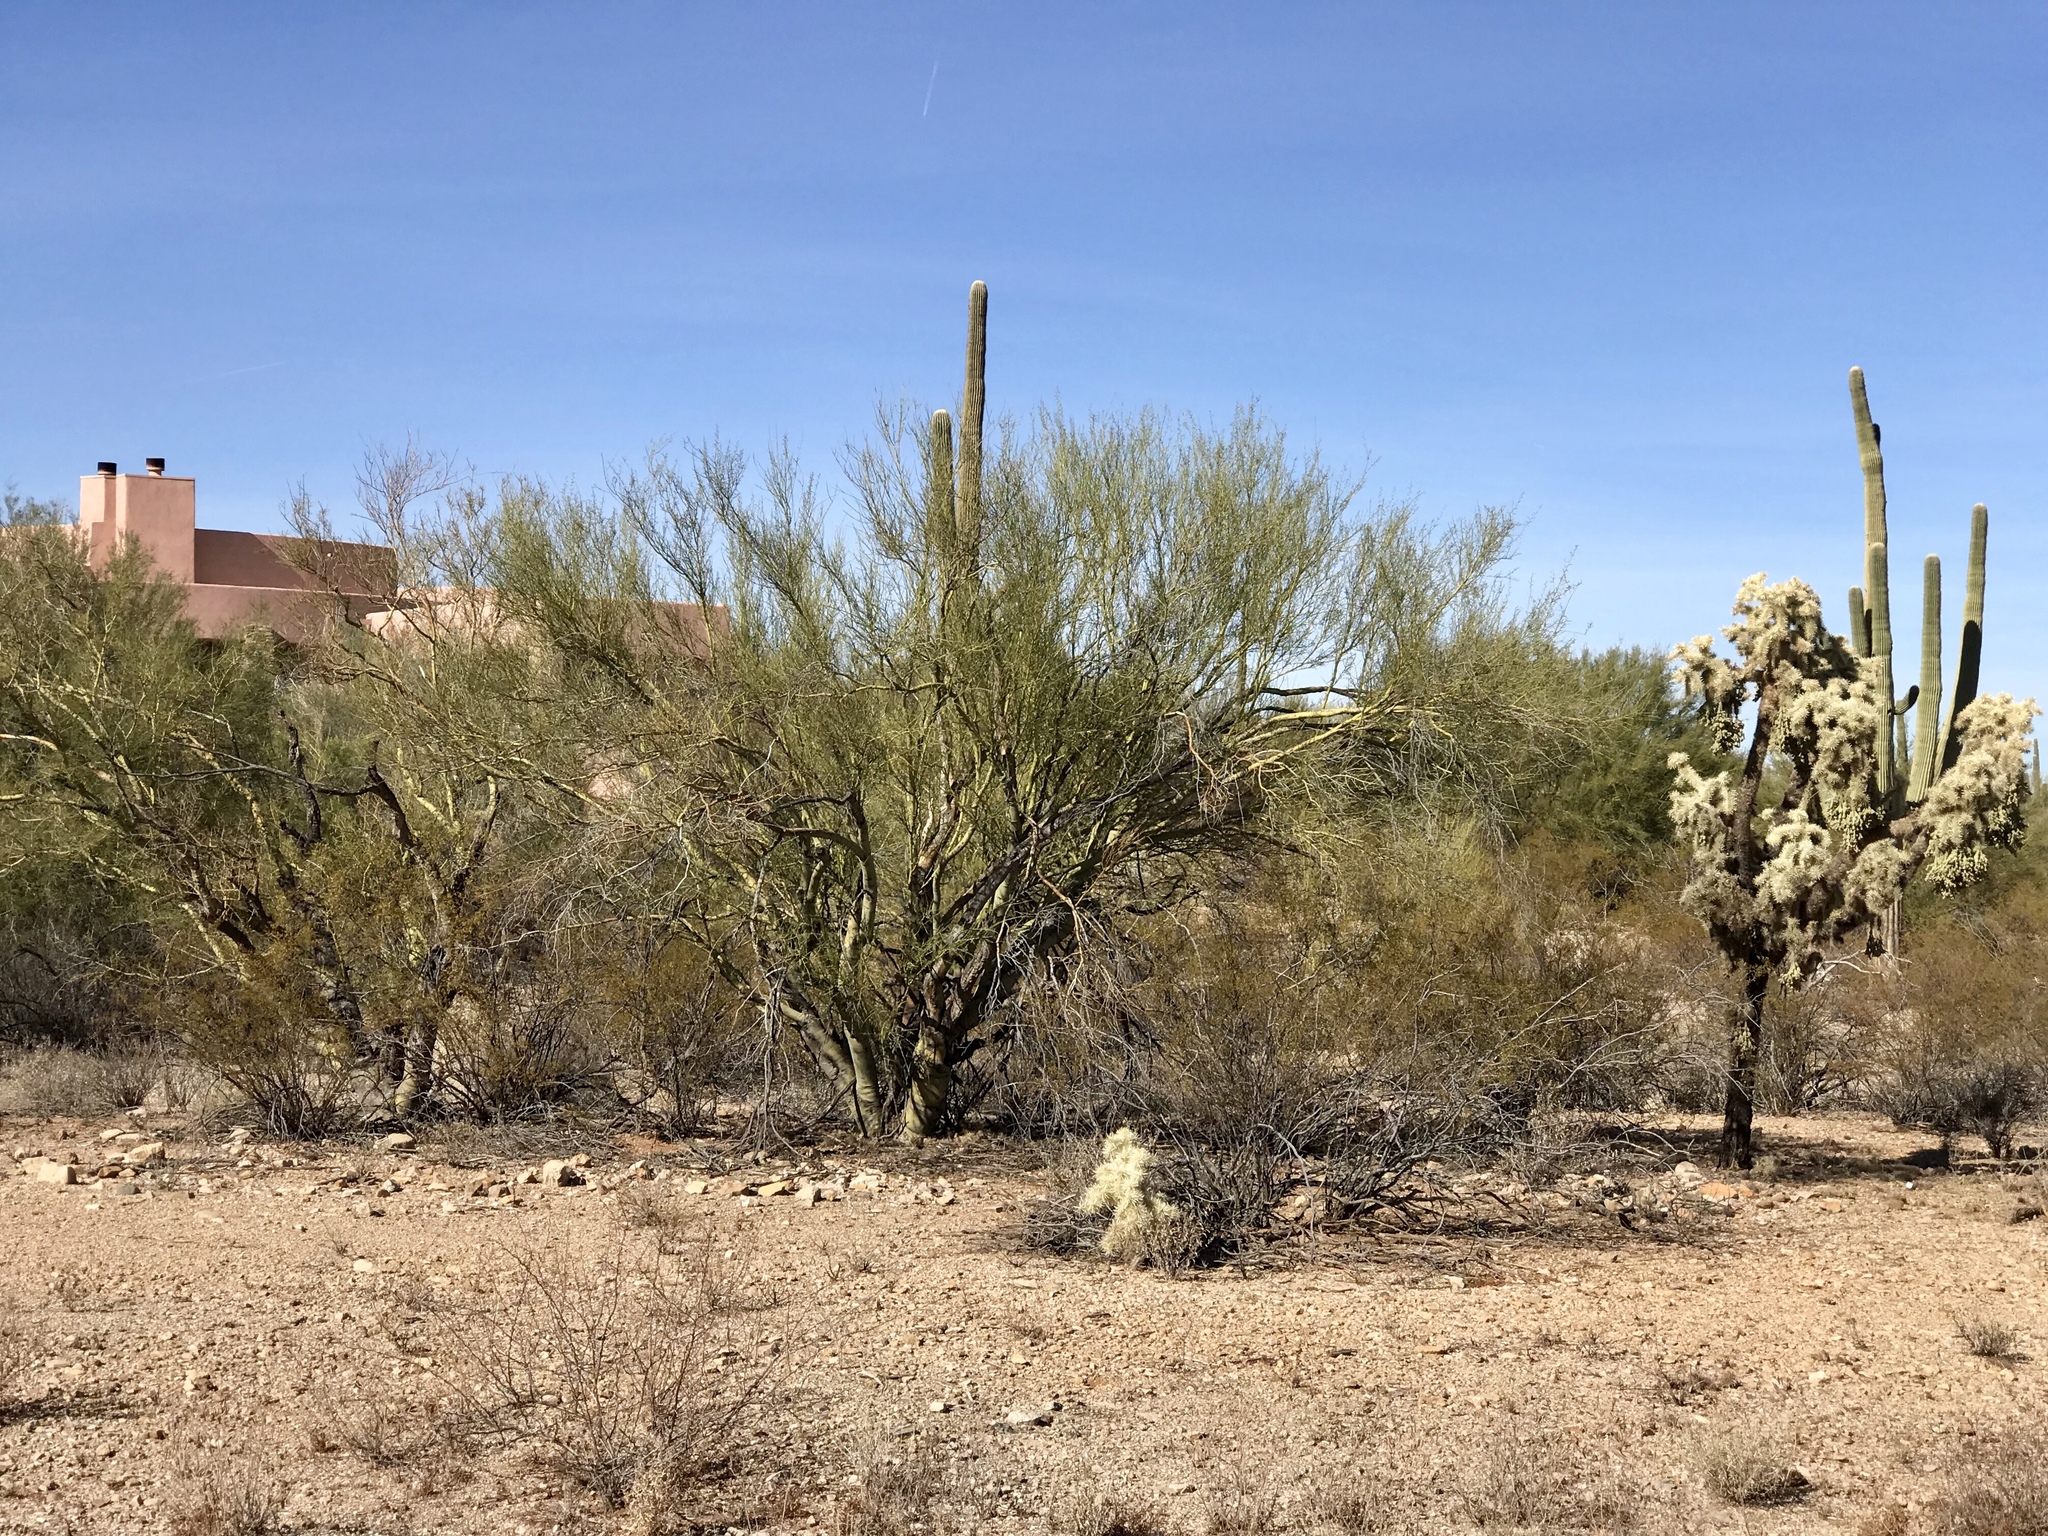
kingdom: Plantae
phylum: Tracheophyta
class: Magnoliopsida
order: Fabales
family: Fabaceae
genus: Parkinsonia
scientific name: Parkinsonia microphylla
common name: Yellow paloverde
